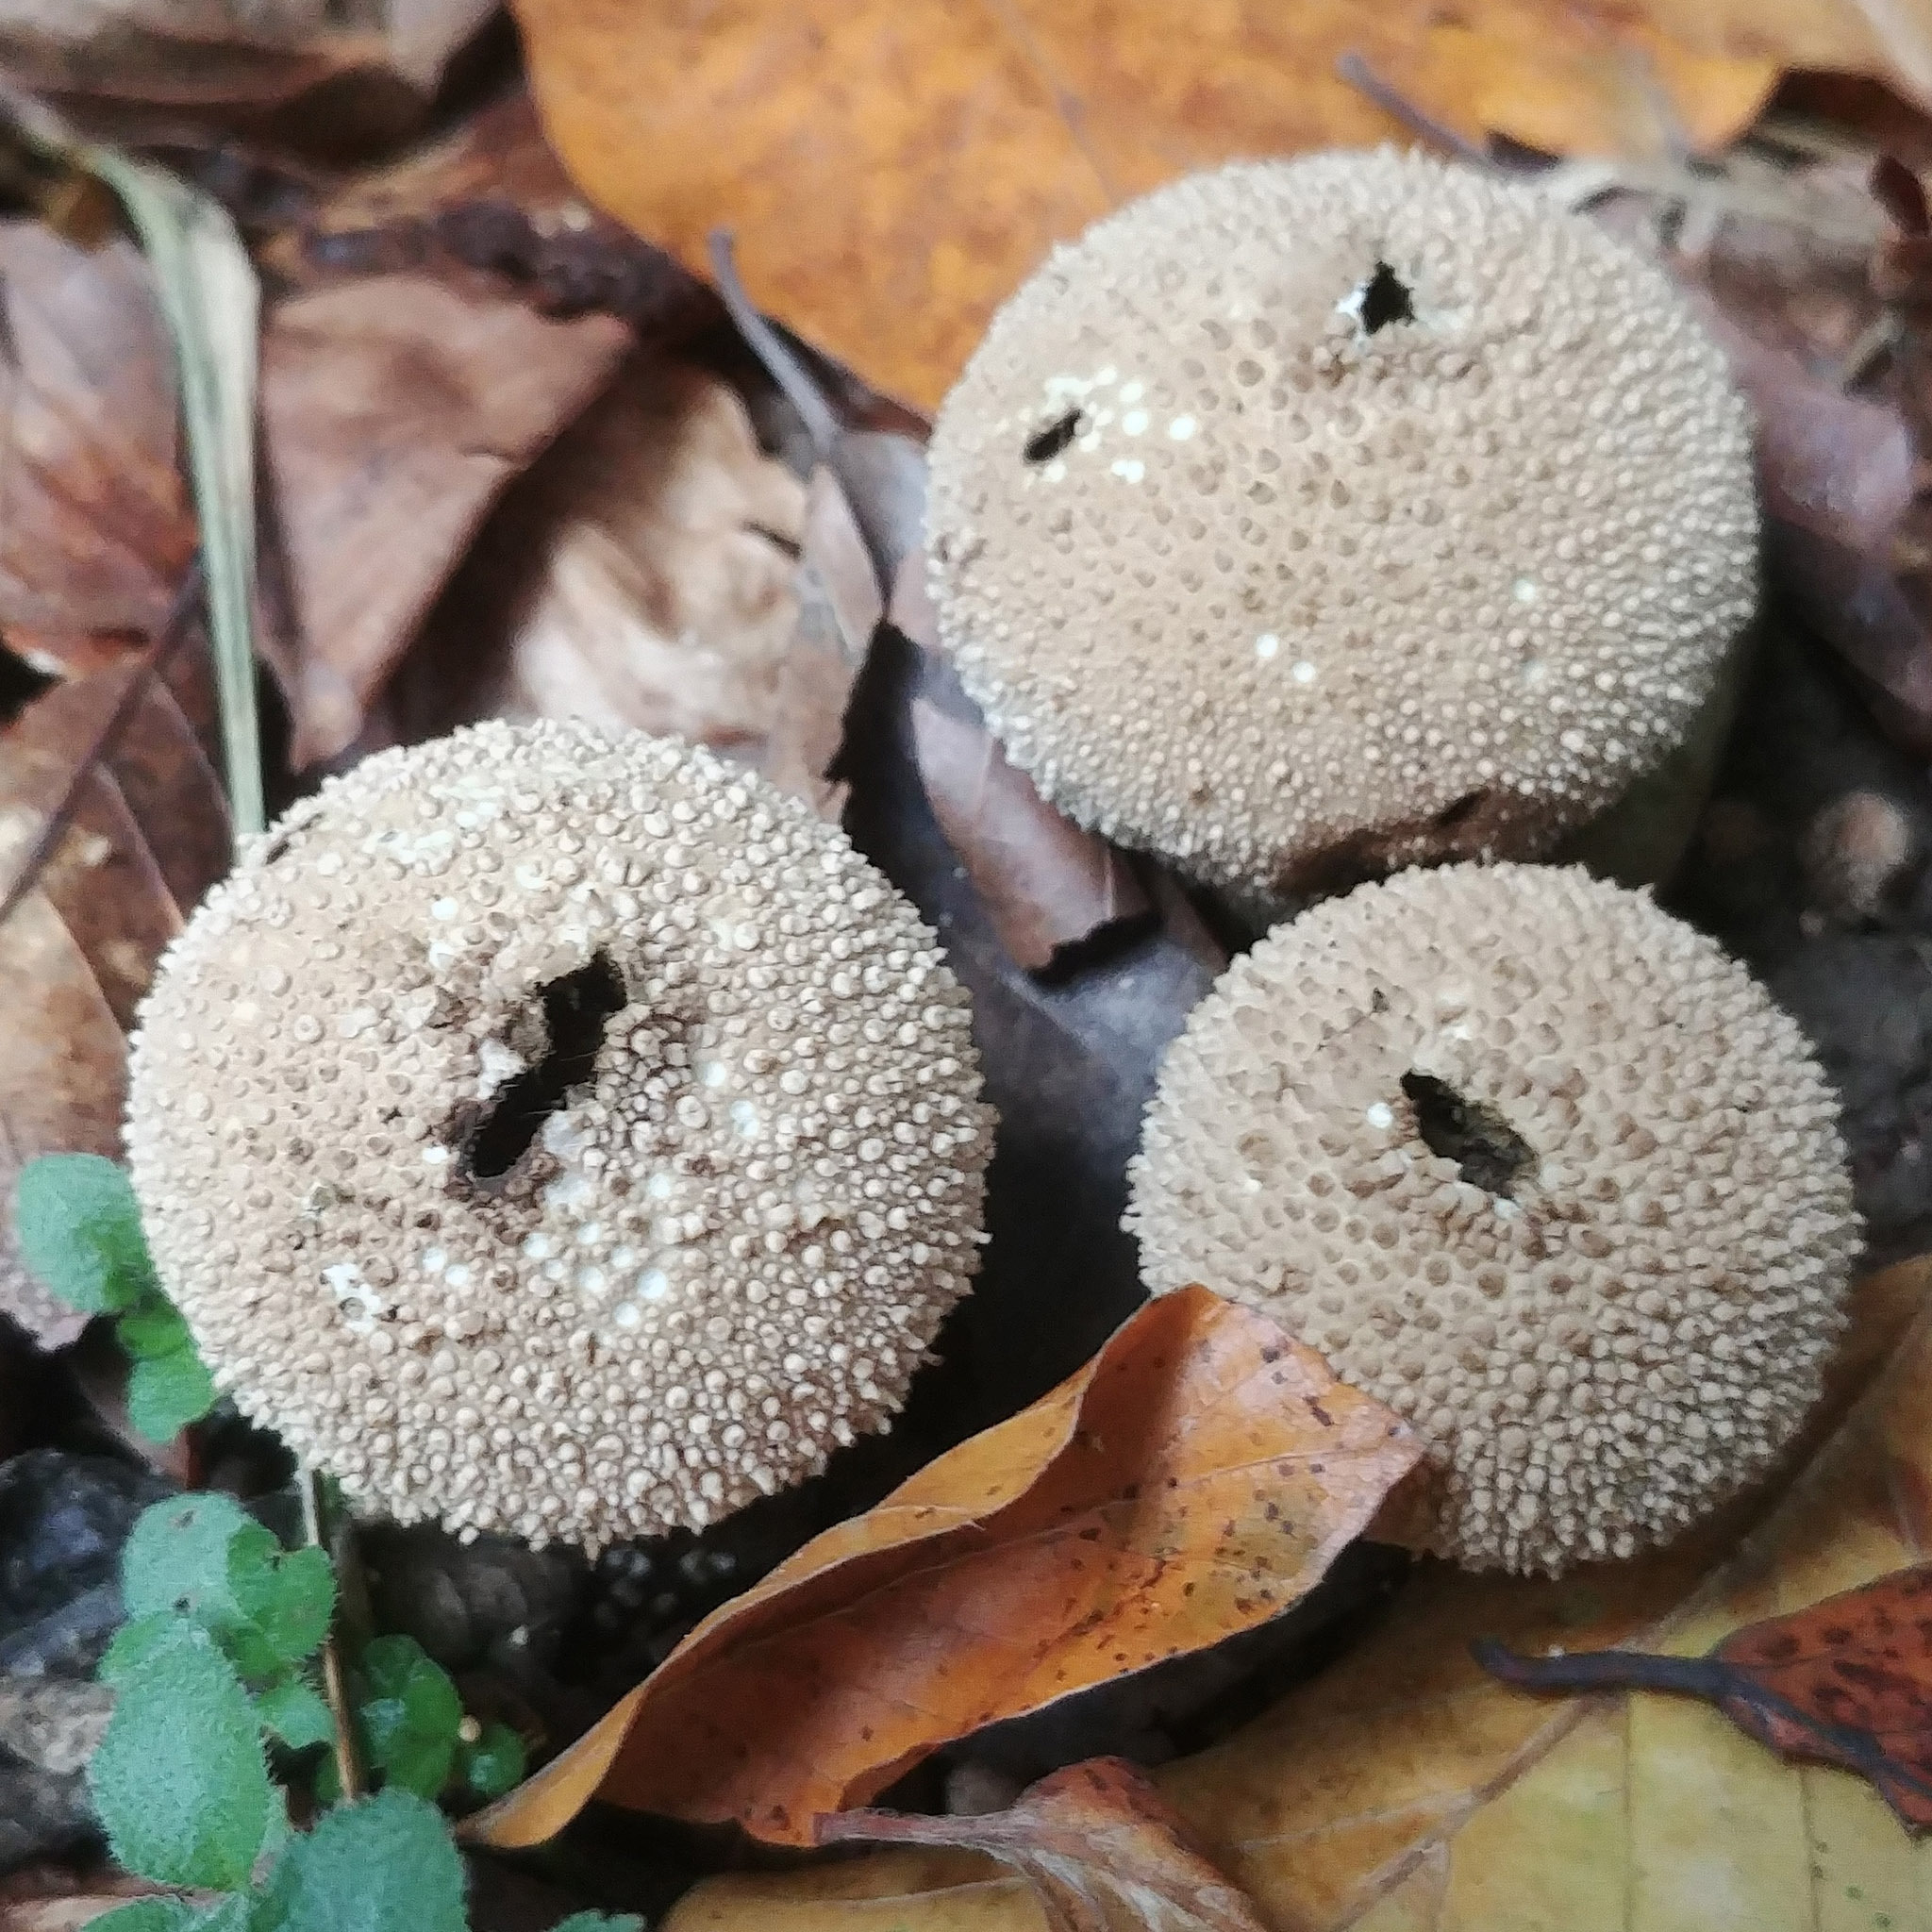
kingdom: Fungi
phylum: Basidiomycota
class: Agaricomycetes
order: Agaricales
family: Lycoperdaceae
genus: Lycoperdon
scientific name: Lycoperdon perlatum
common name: Common puffball
